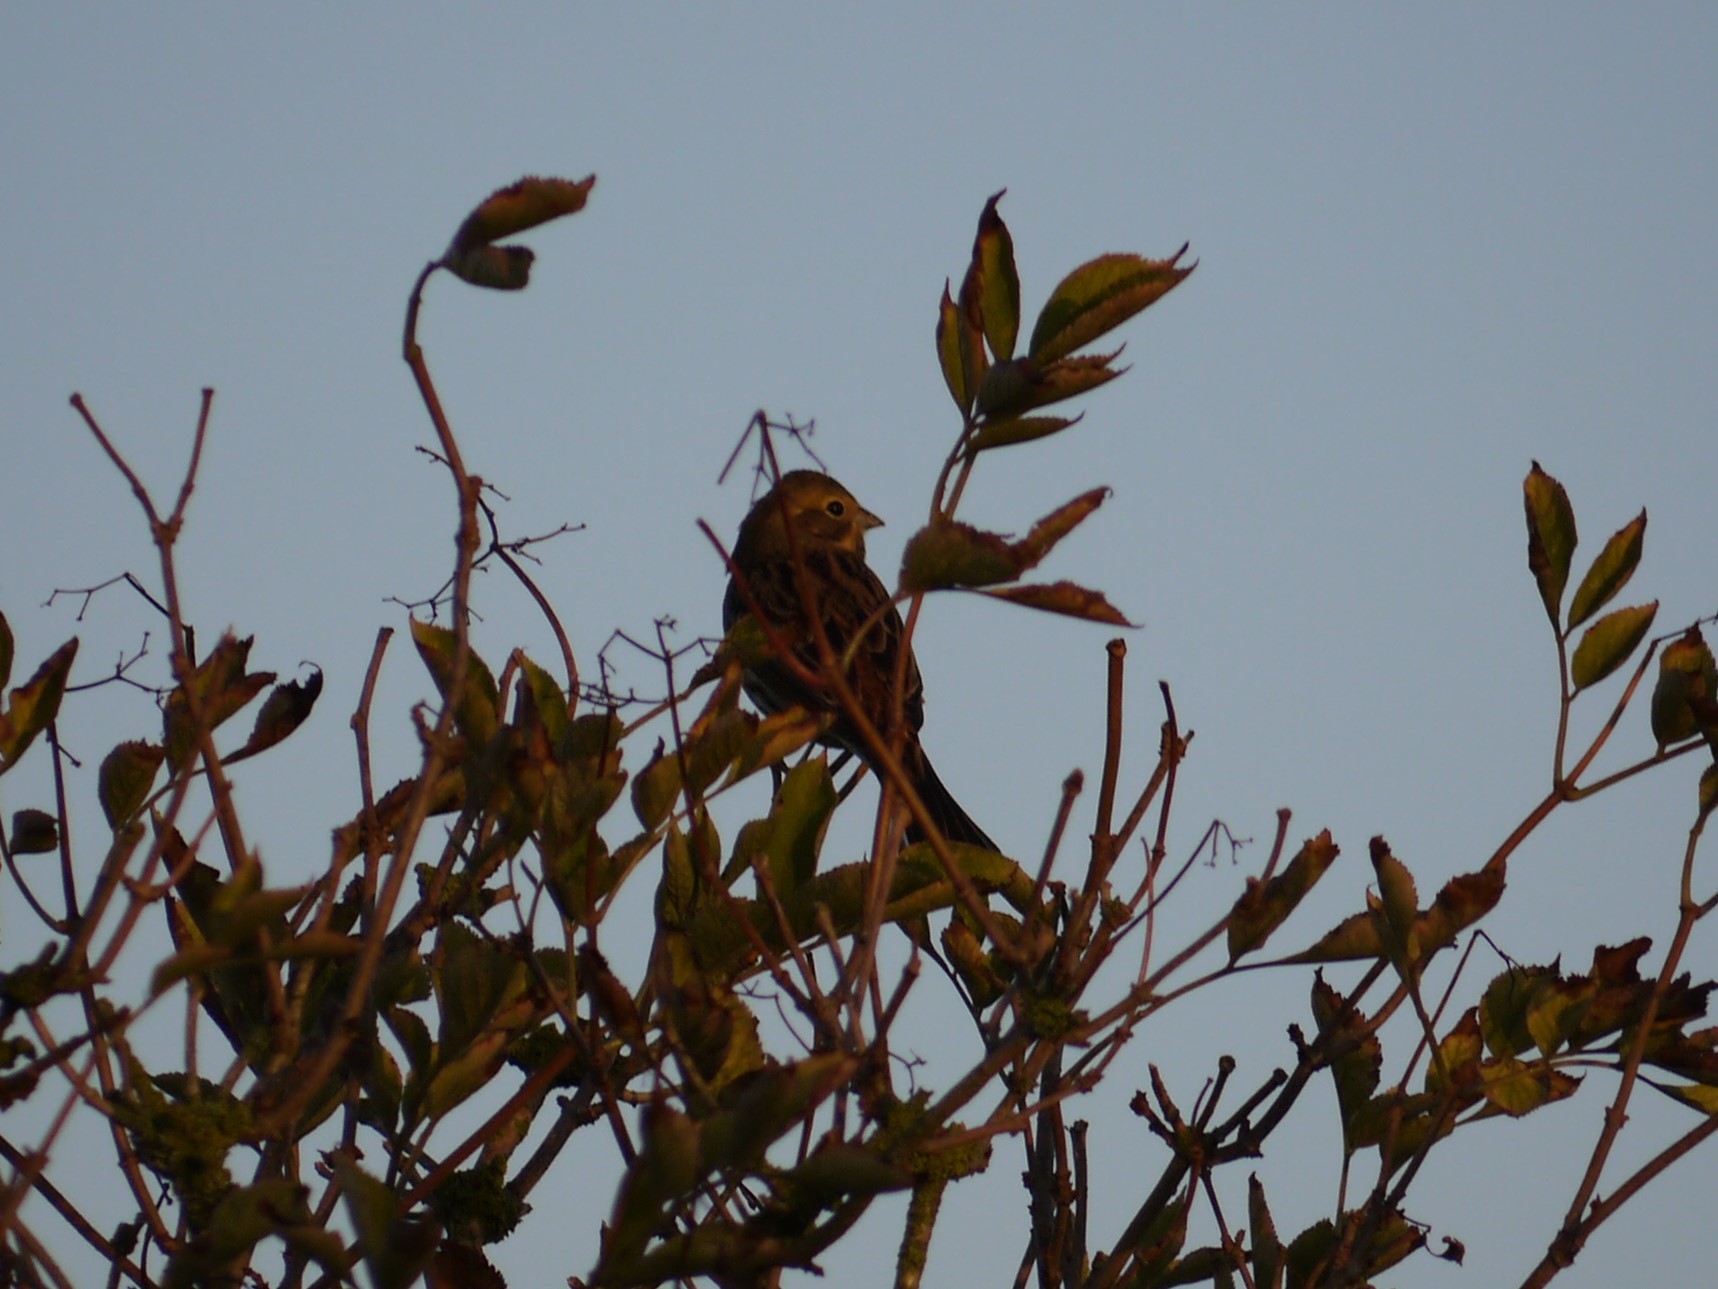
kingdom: Animalia
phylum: Chordata
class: Aves
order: Passeriformes
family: Emberizidae
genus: Emberiza
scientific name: Emberiza citrinella
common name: Yellowhammer
